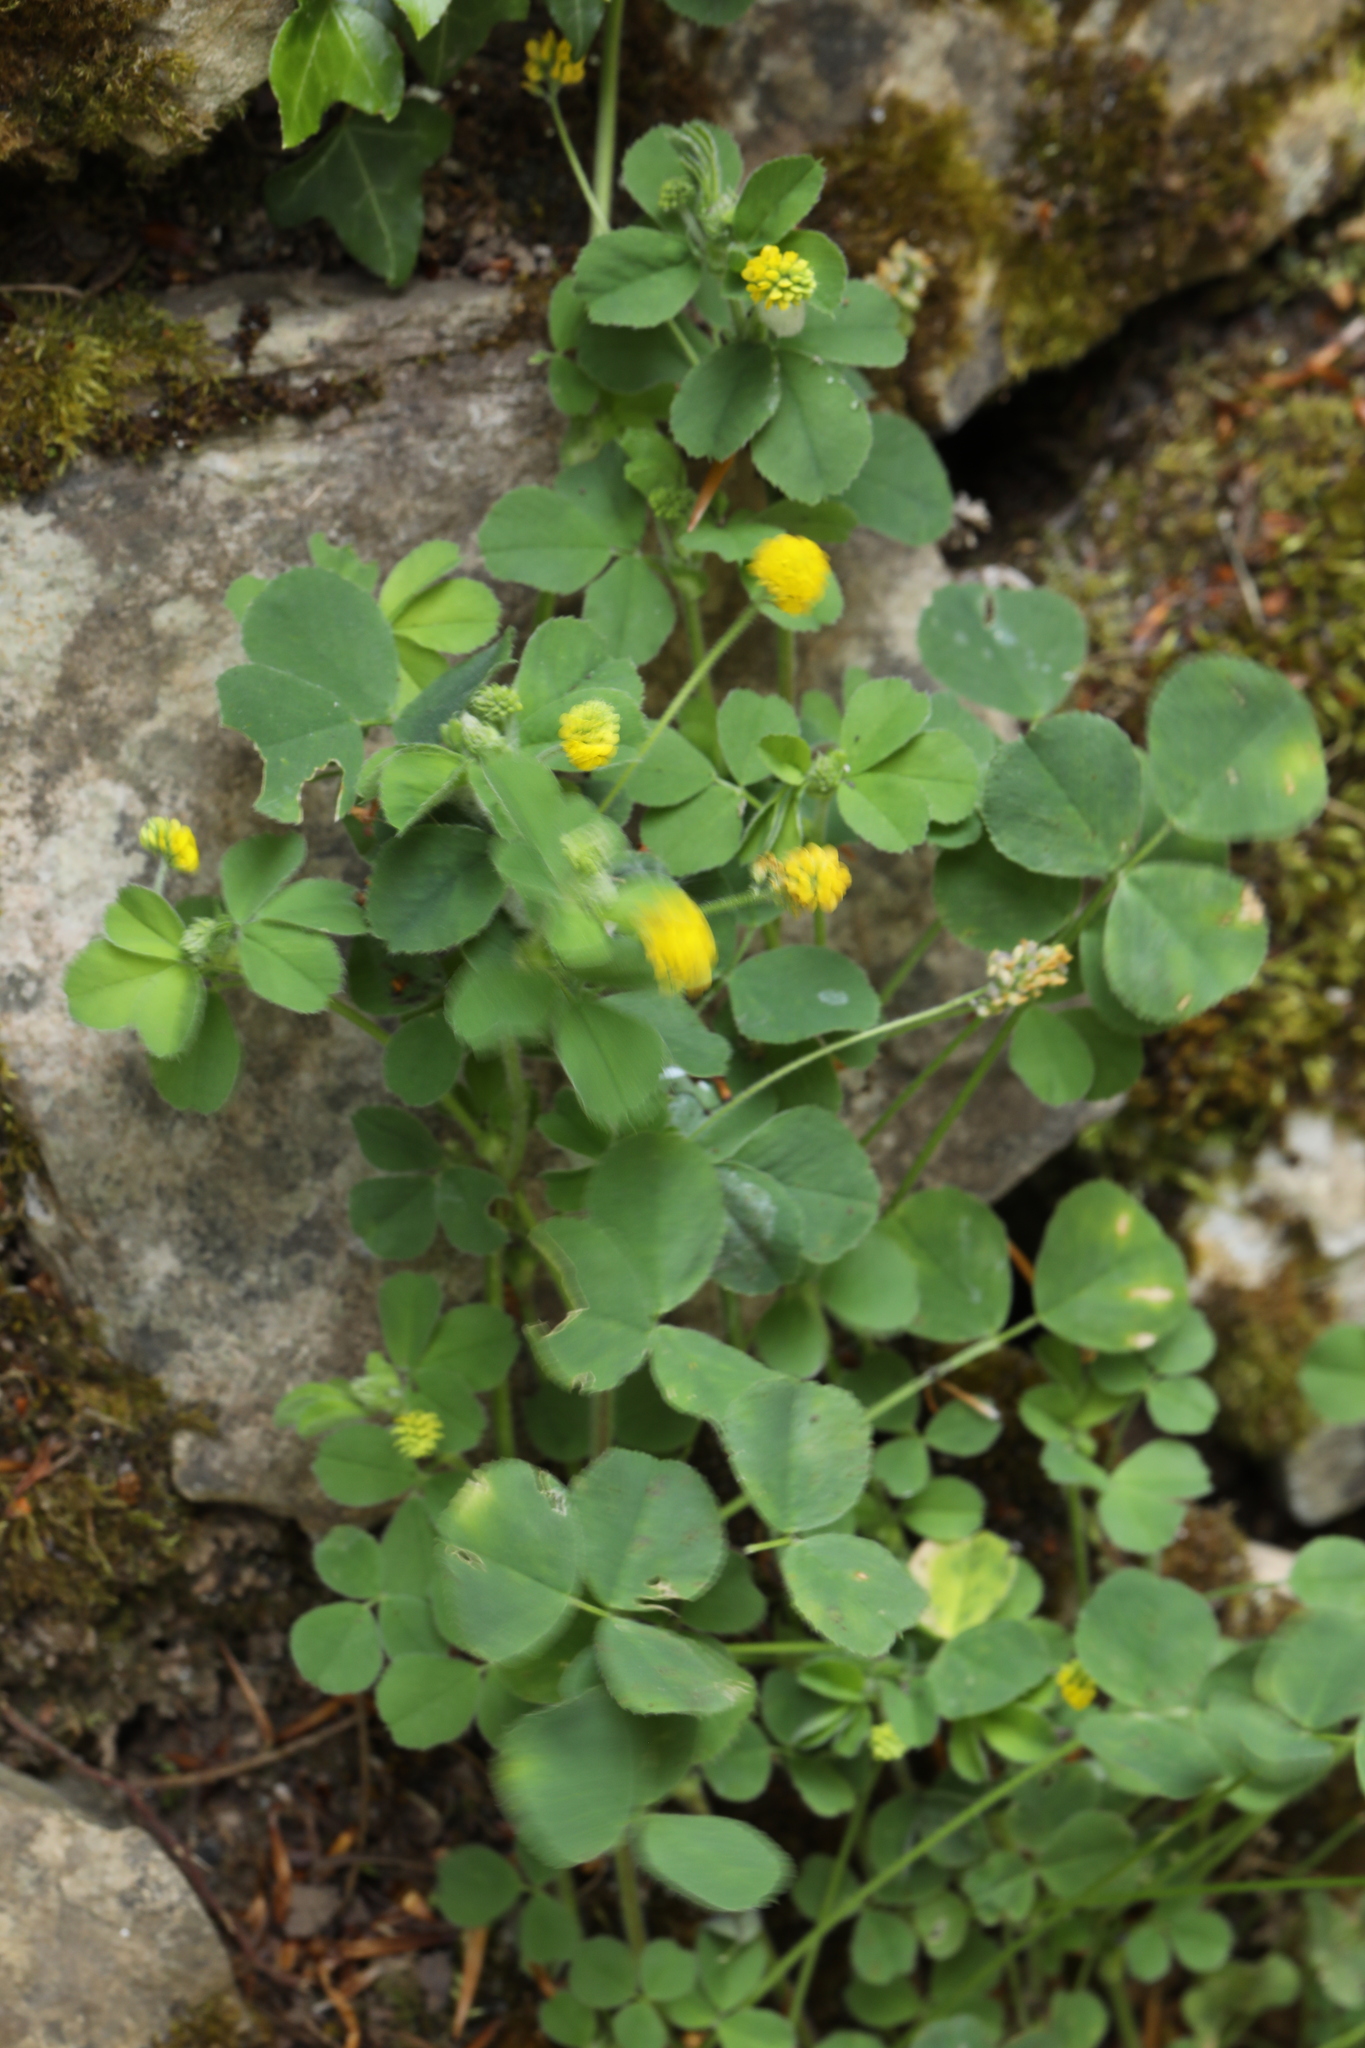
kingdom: Plantae
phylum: Tracheophyta
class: Magnoliopsida
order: Fabales
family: Fabaceae
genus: Medicago
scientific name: Medicago lupulina
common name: Black medick
